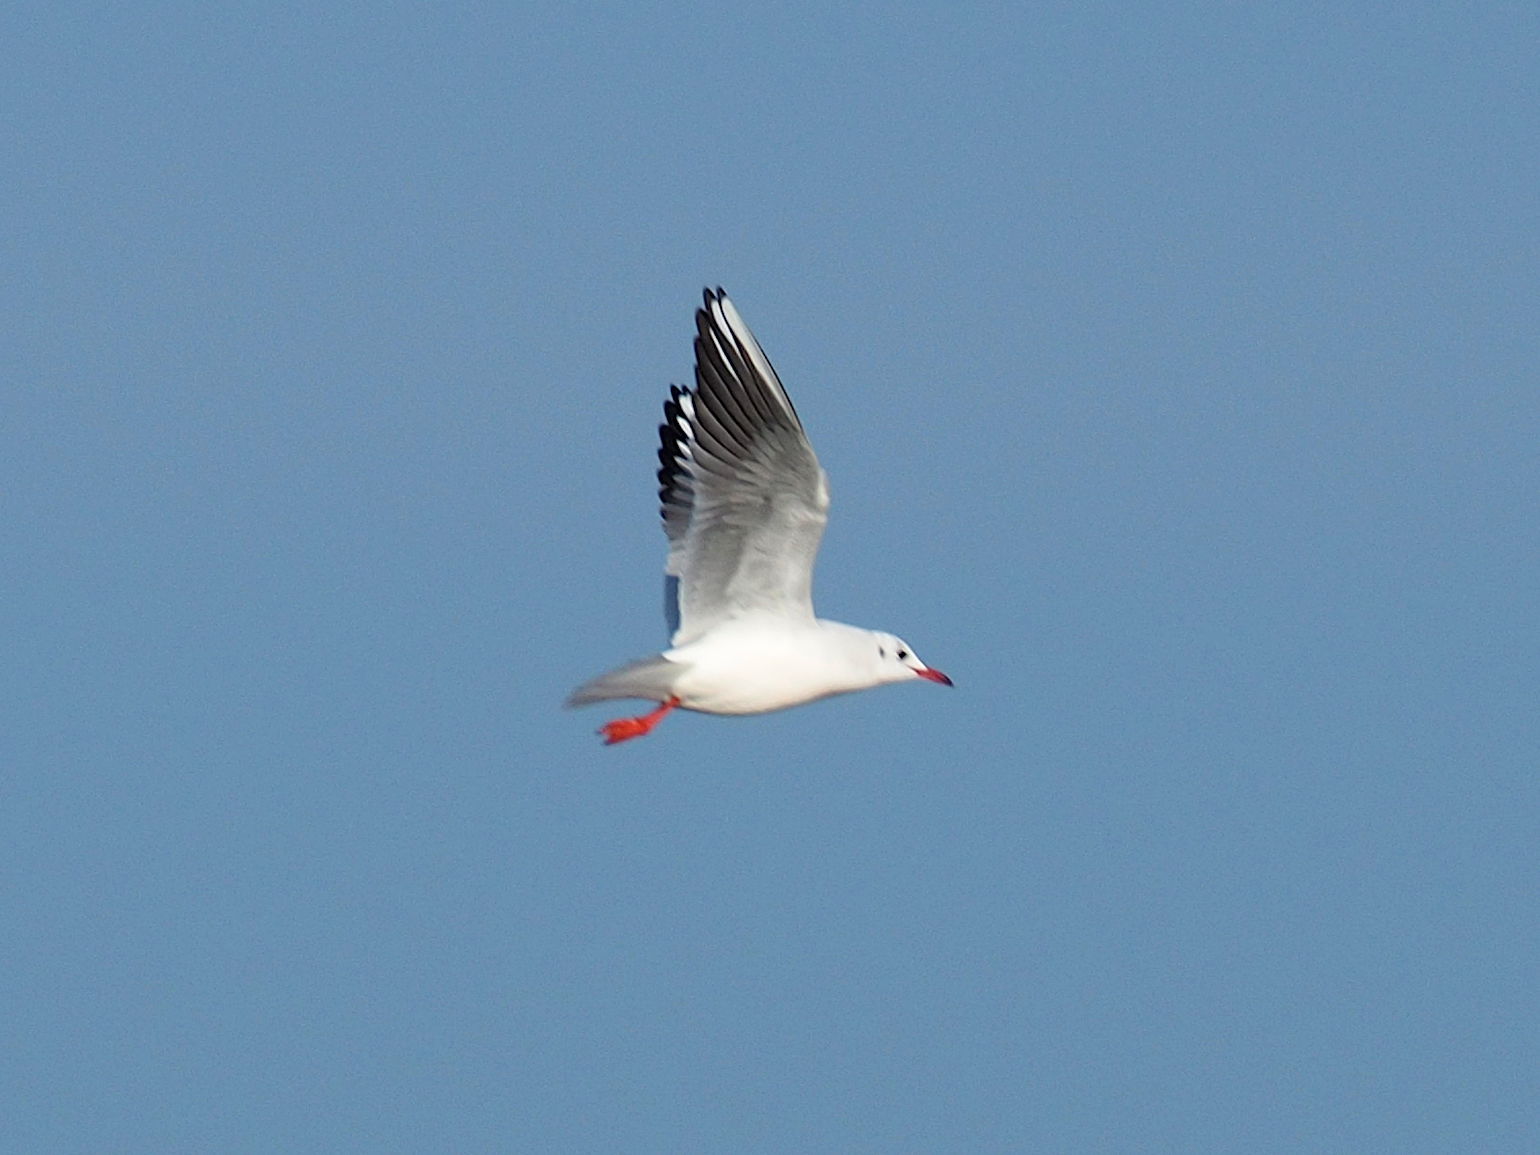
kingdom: Animalia
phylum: Chordata
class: Aves
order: Charadriiformes
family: Laridae
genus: Chroicocephalus
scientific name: Chroicocephalus ridibundus
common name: Black-headed gull
